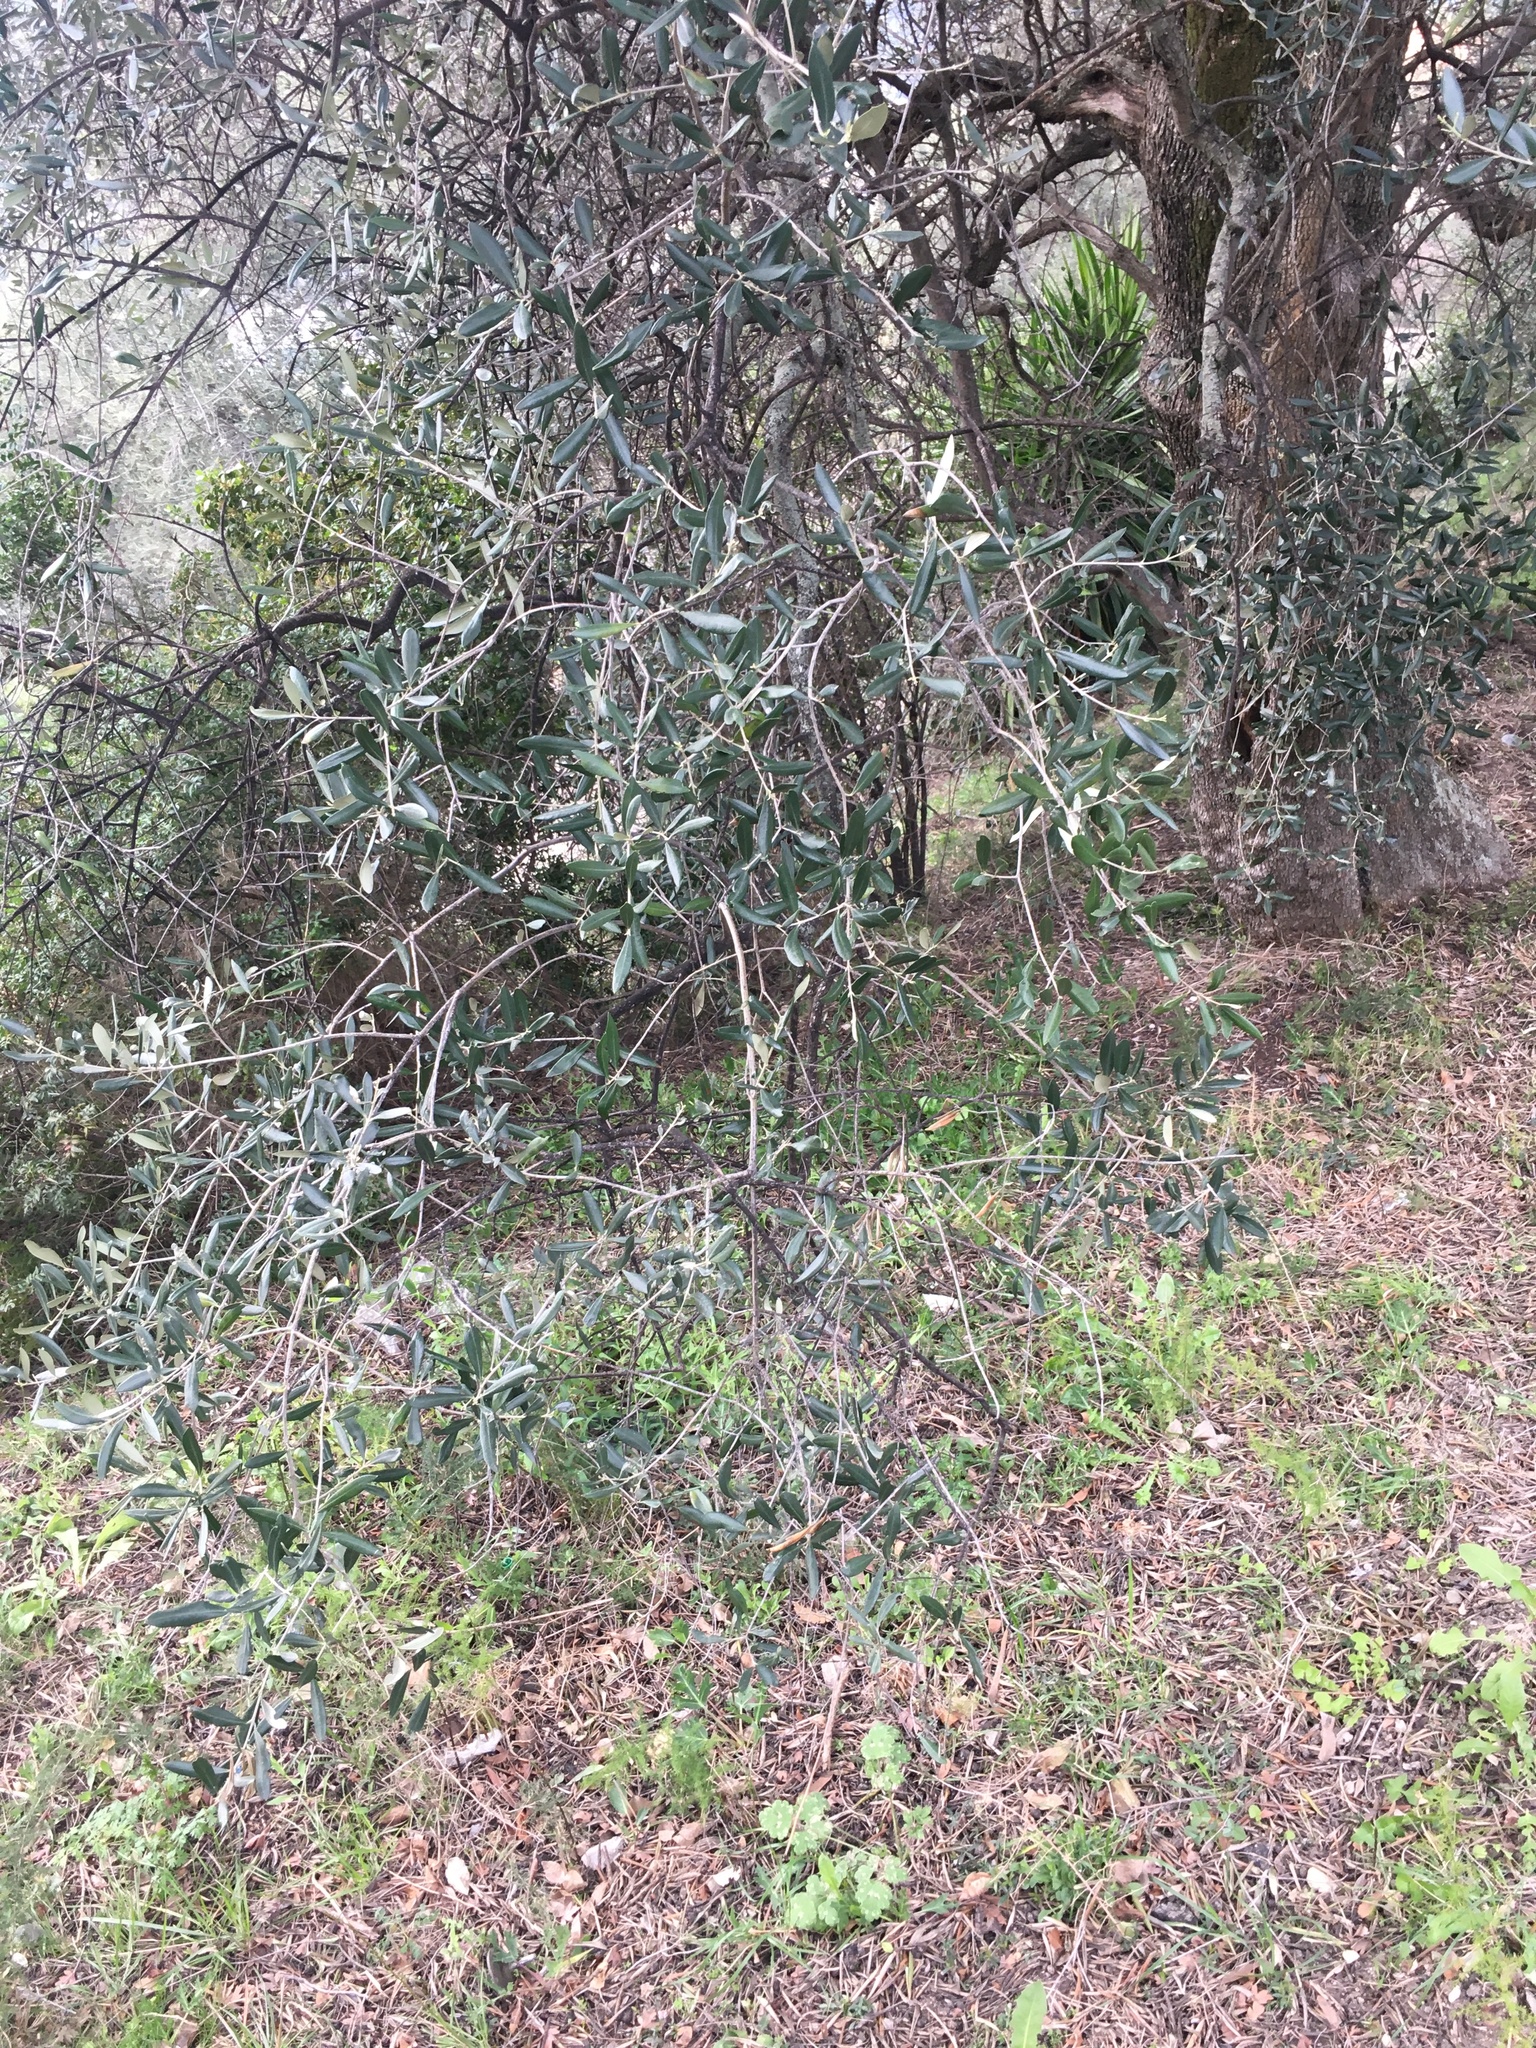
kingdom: Plantae
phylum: Tracheophyta
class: Magnoliopsida
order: Lamiales
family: Oleaceae
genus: Olea
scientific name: Olea europaea
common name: Olive
